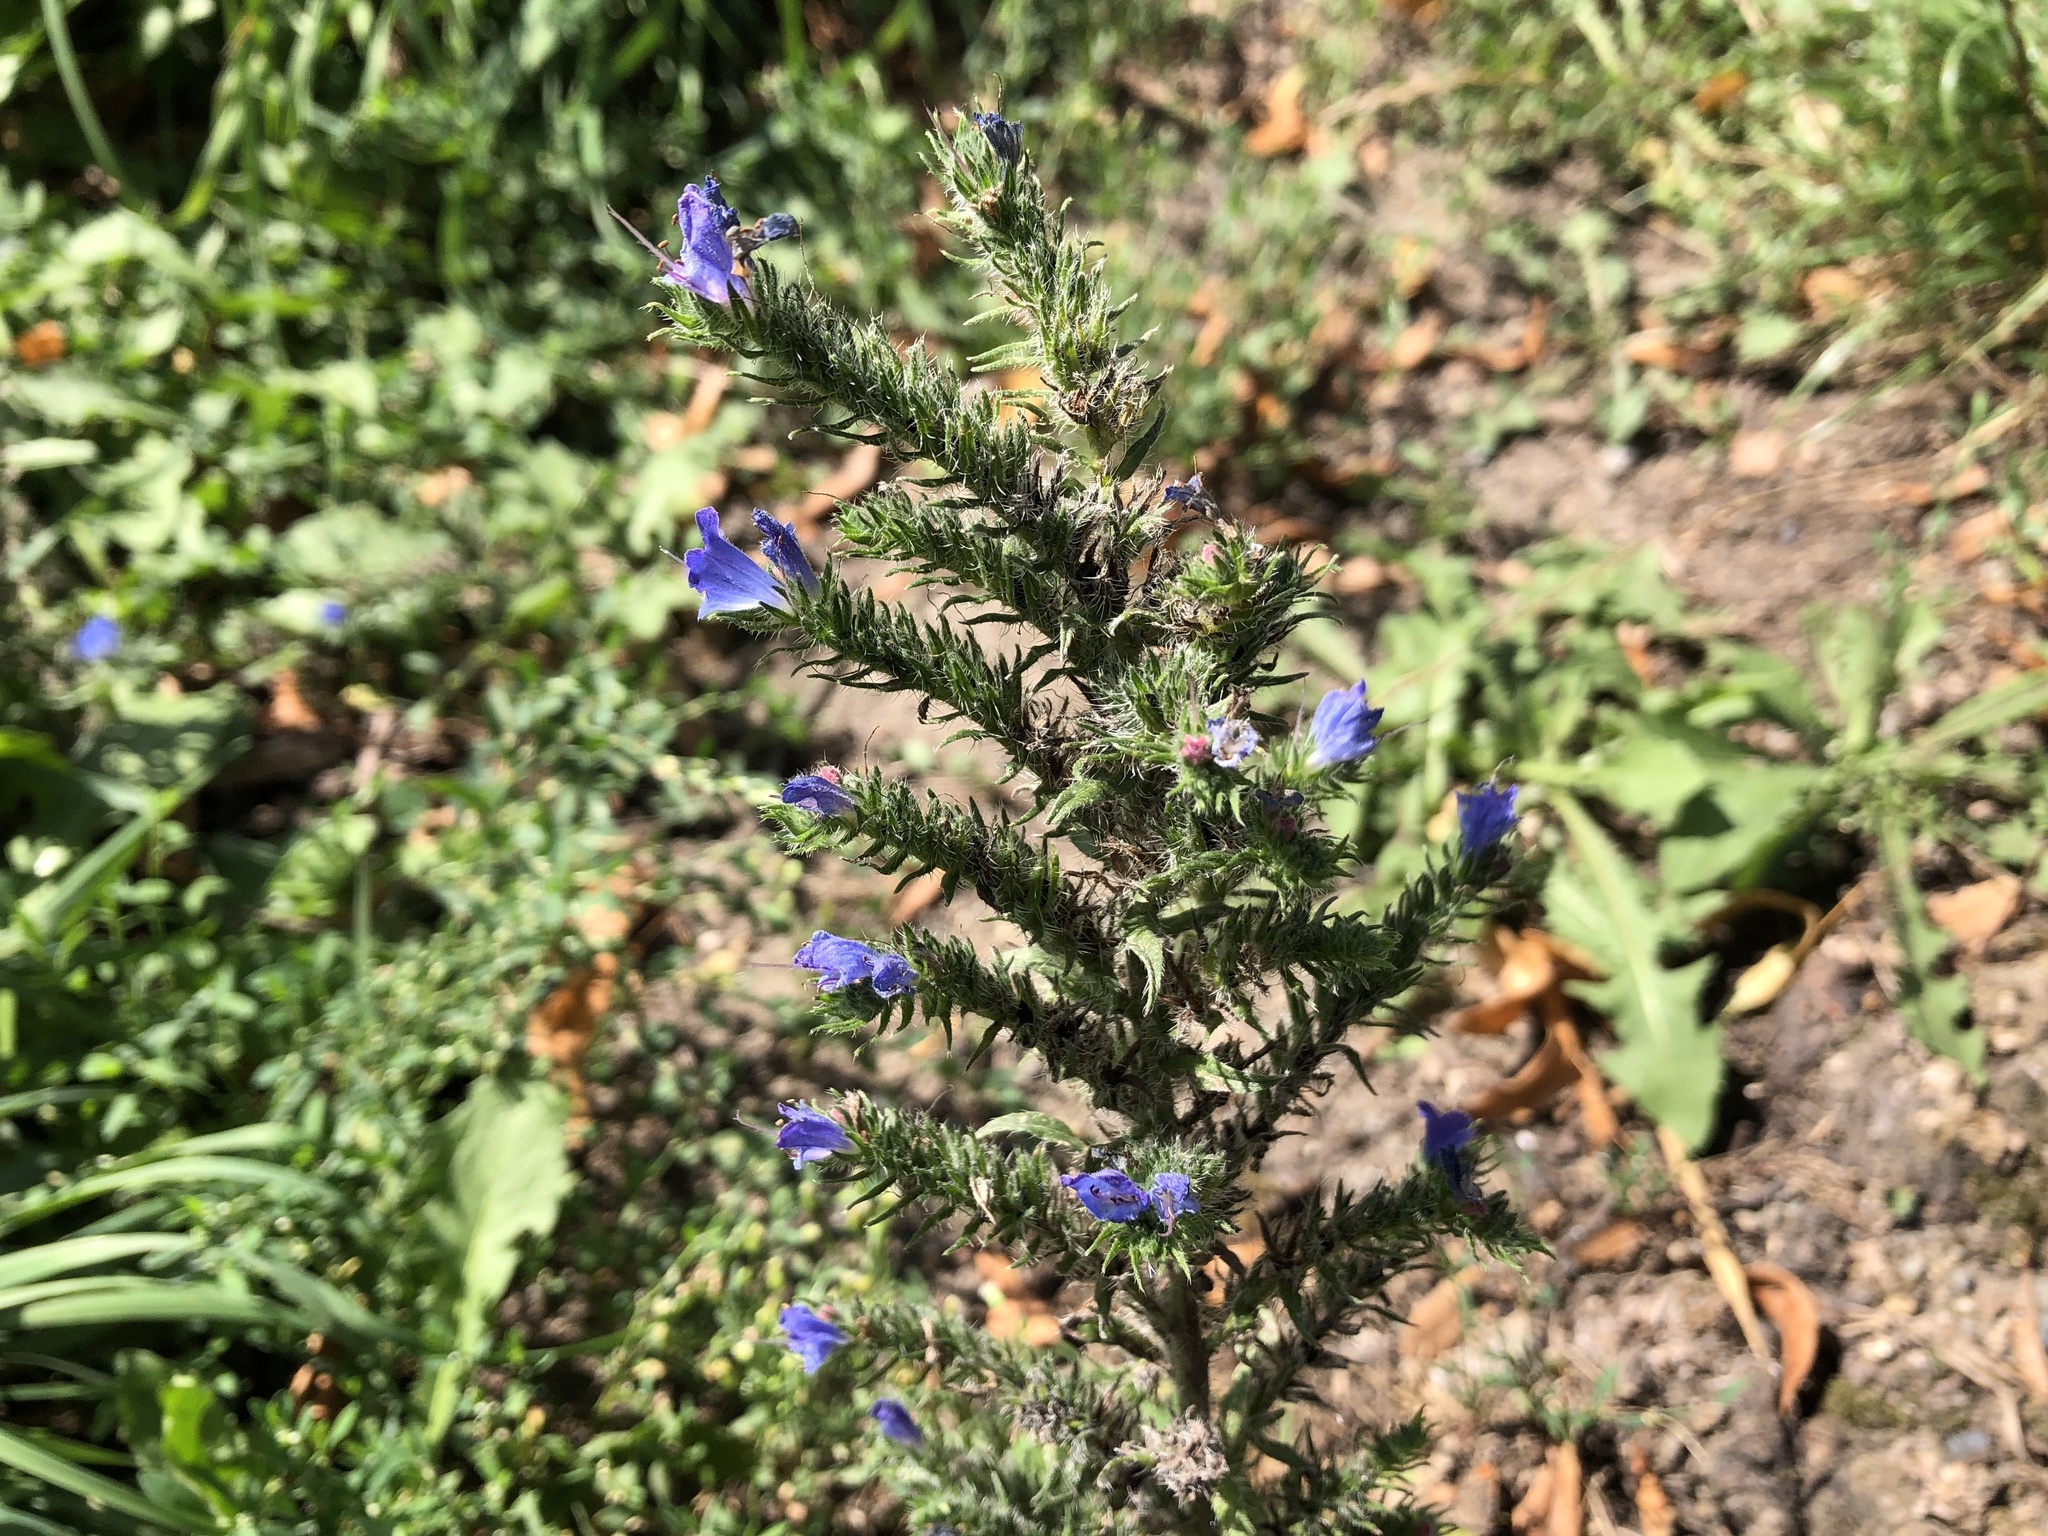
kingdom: Plantae
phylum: Tracheophyta
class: Magnoliopsida
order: Boraginales
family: Boraginaceae
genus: Echium
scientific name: Echium vulgare
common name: Common viper's bugloss
